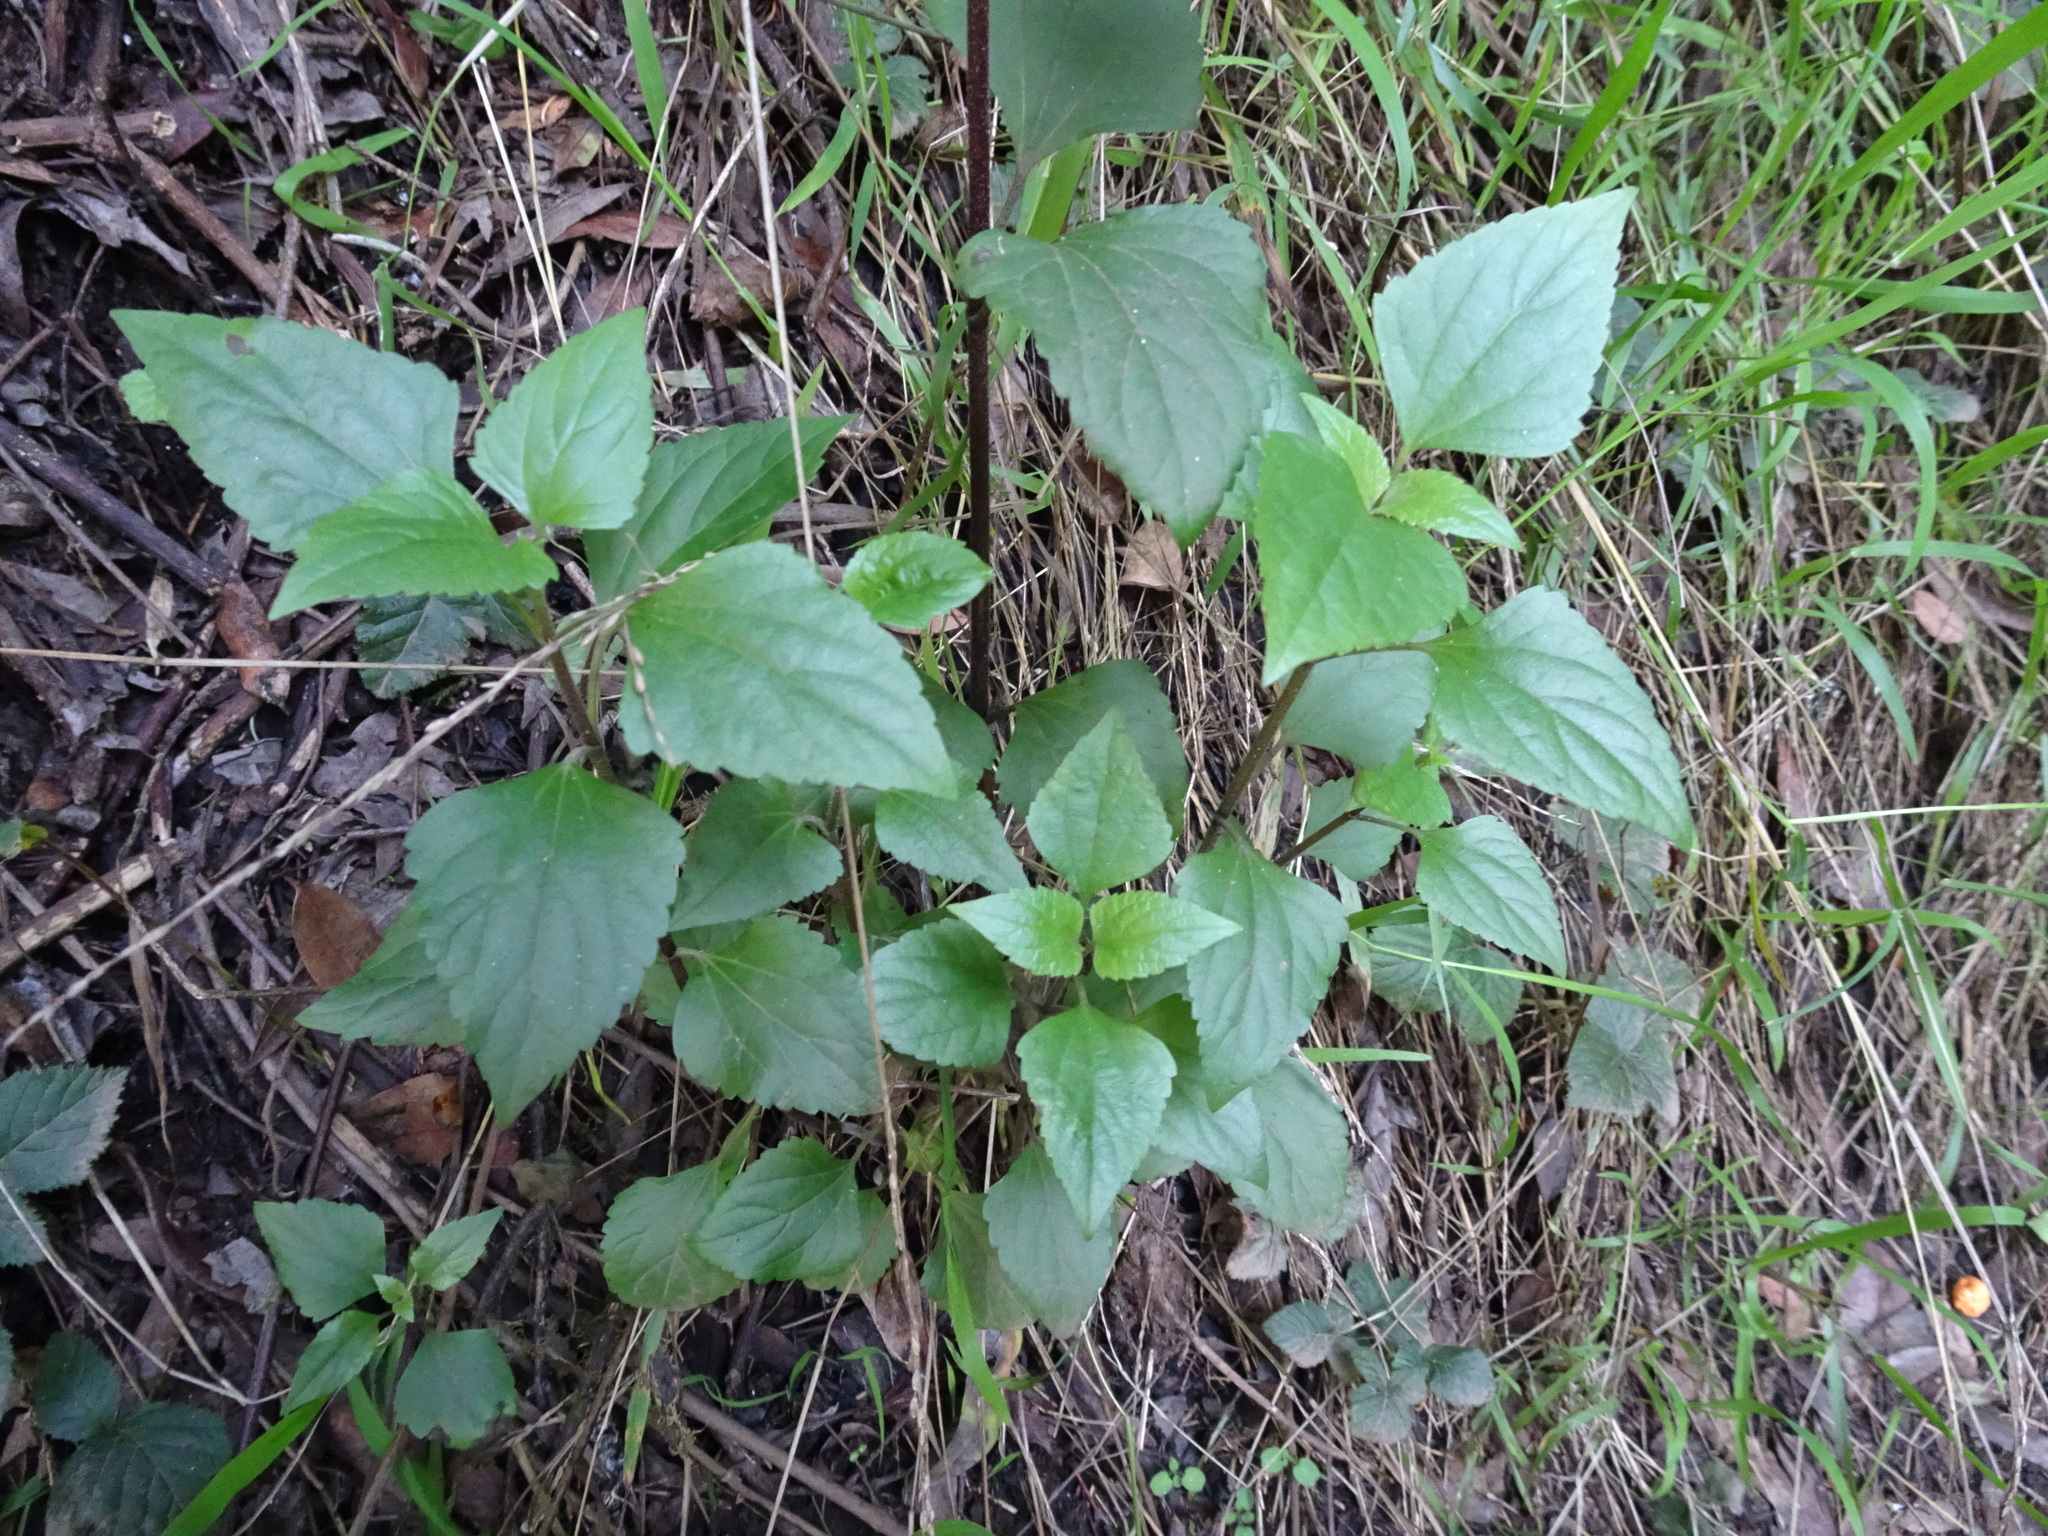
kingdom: Plantae
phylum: Tracheophyta
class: Magnoliopsida
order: Asterales
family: Asteraceae
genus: Ageratina
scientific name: Ageratina adenophora
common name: Sticky snakeroot
